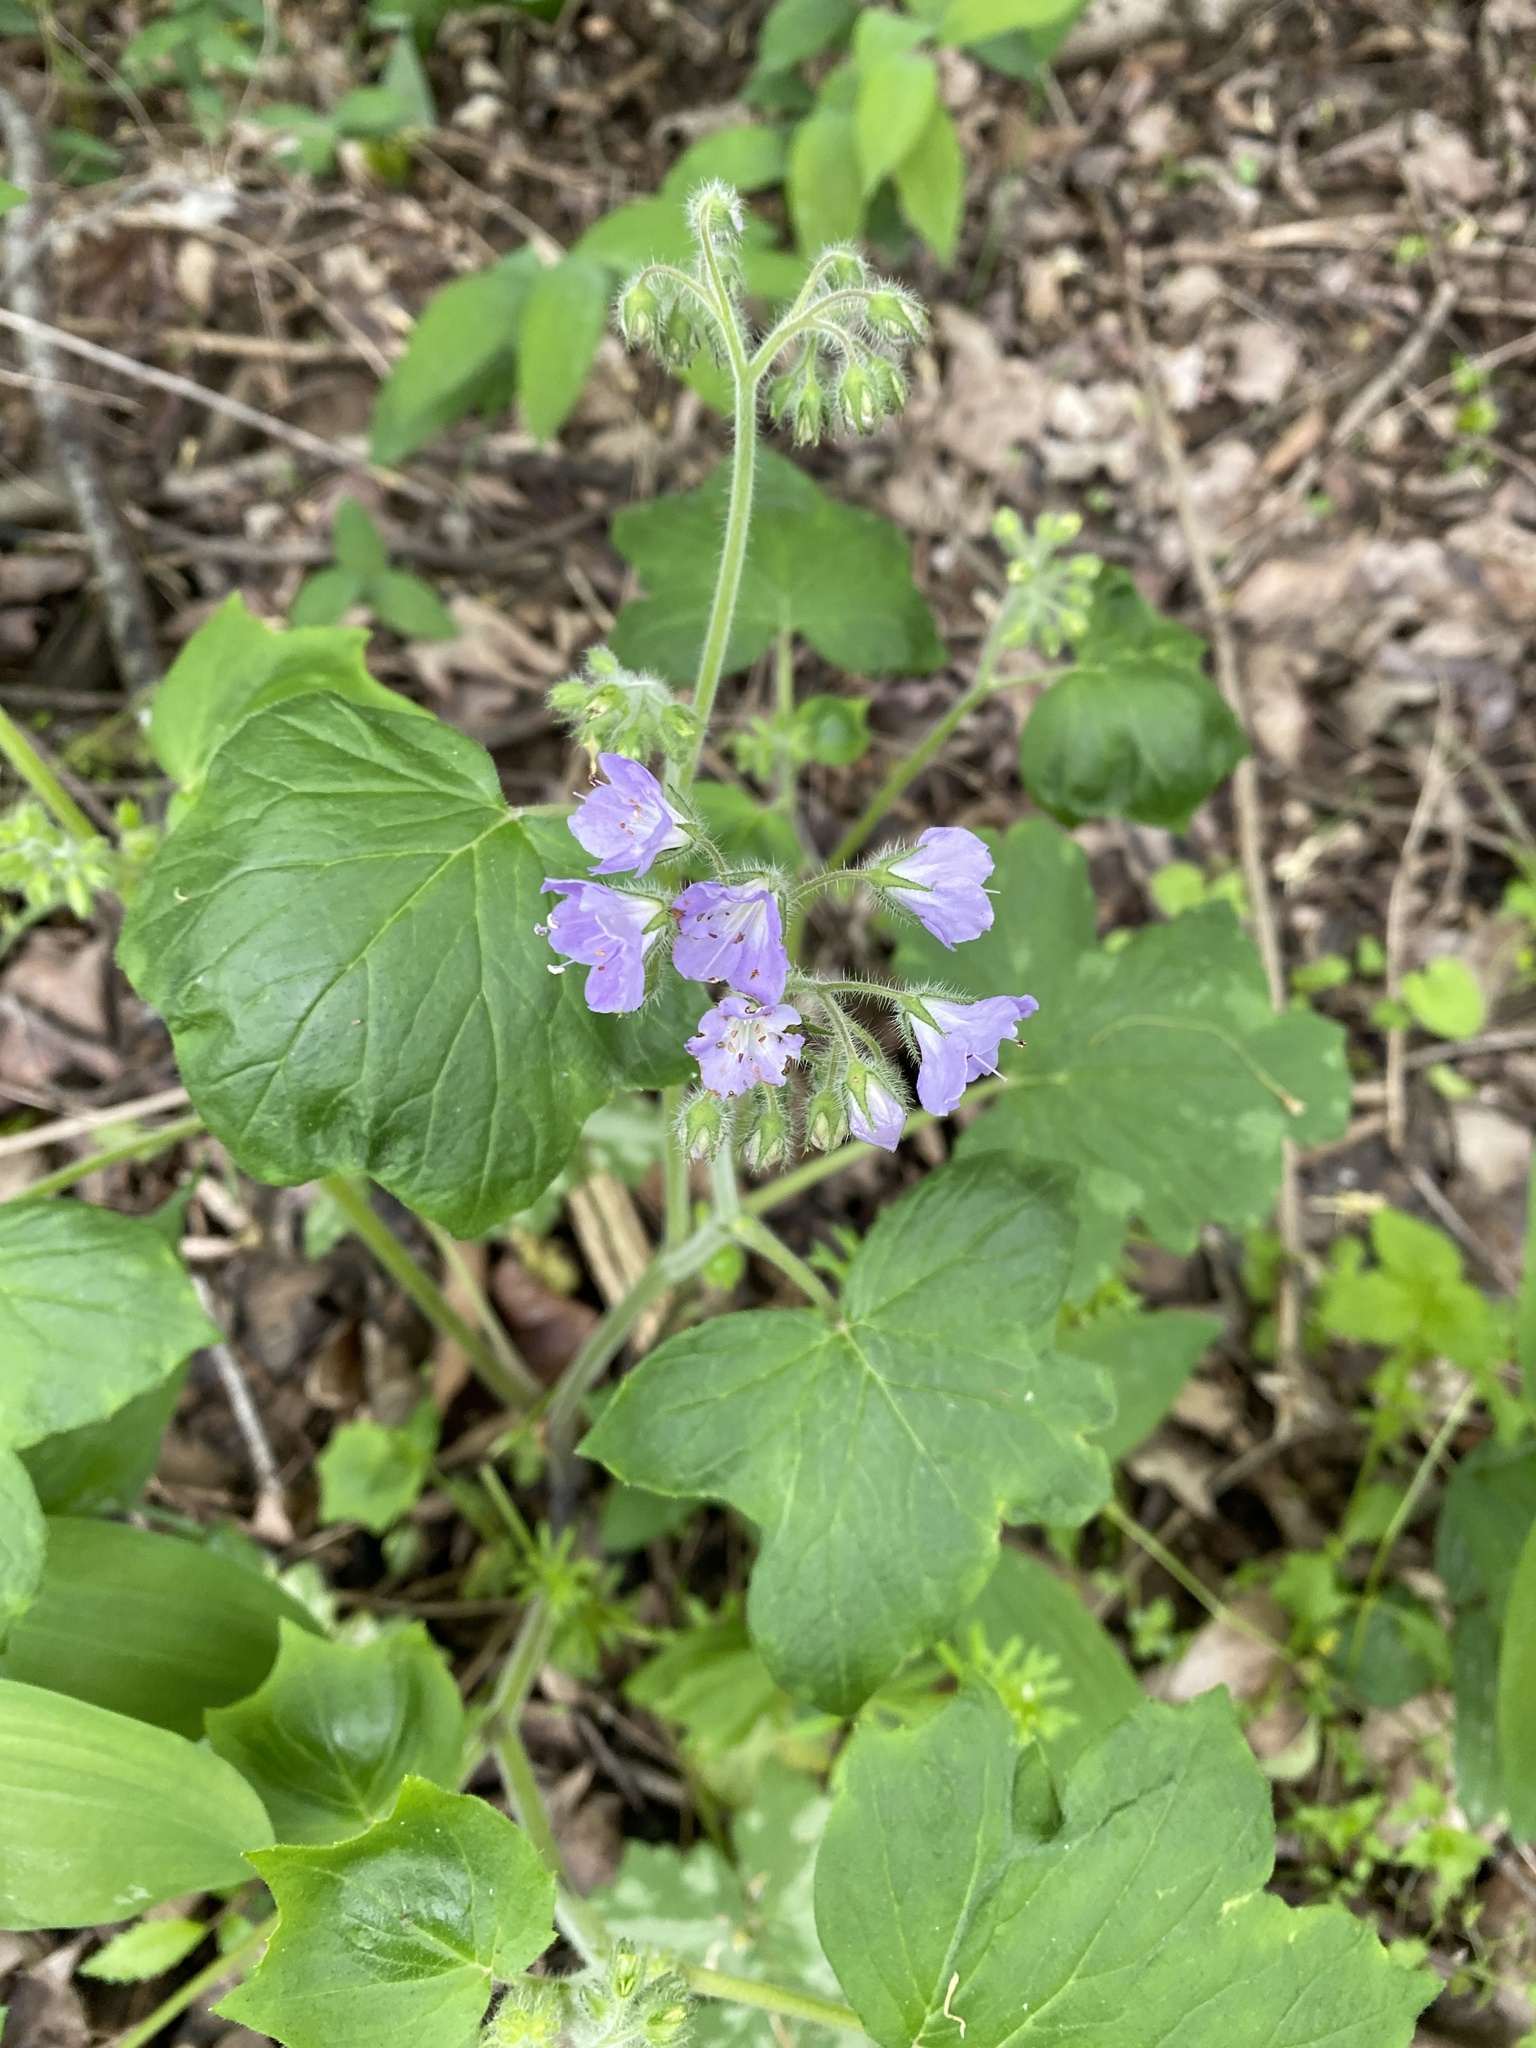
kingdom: Plantae
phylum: Tracheophyta
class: Magnoliopsida
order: Boraginales
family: Hydrophyllaceae
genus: Hydrophyllum
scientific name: Hydrophyllum appendiculatum
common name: Appendaged waterleaf
